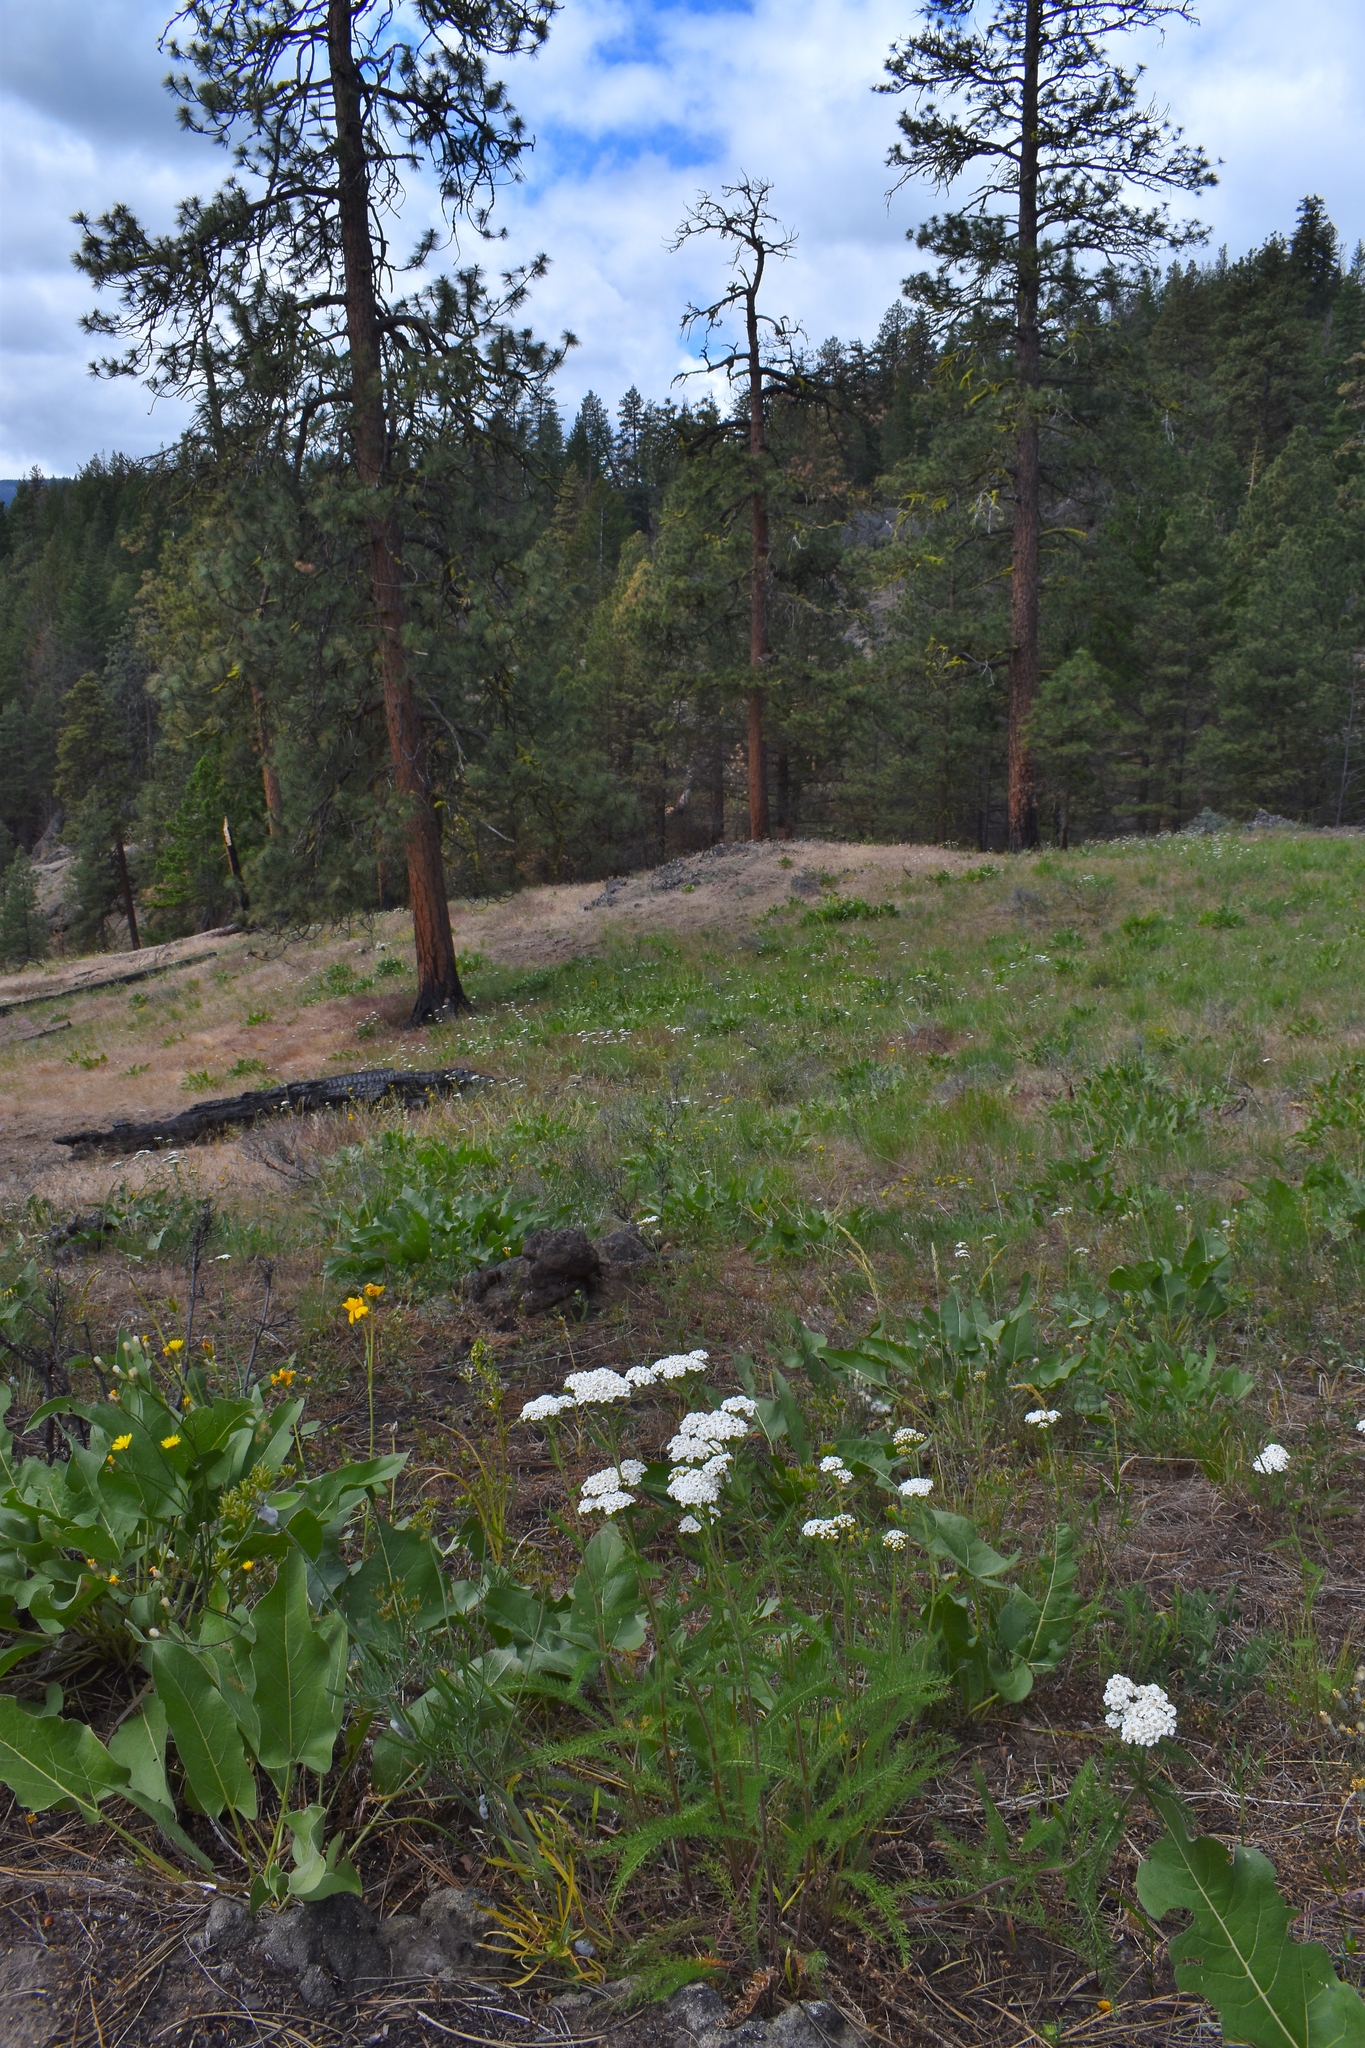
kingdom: Plantae
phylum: Tracheophyta
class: Magnoliopsida
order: Asterales
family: Asteraceae
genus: Achillea
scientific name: Achillea millefolium
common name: Yarrow
